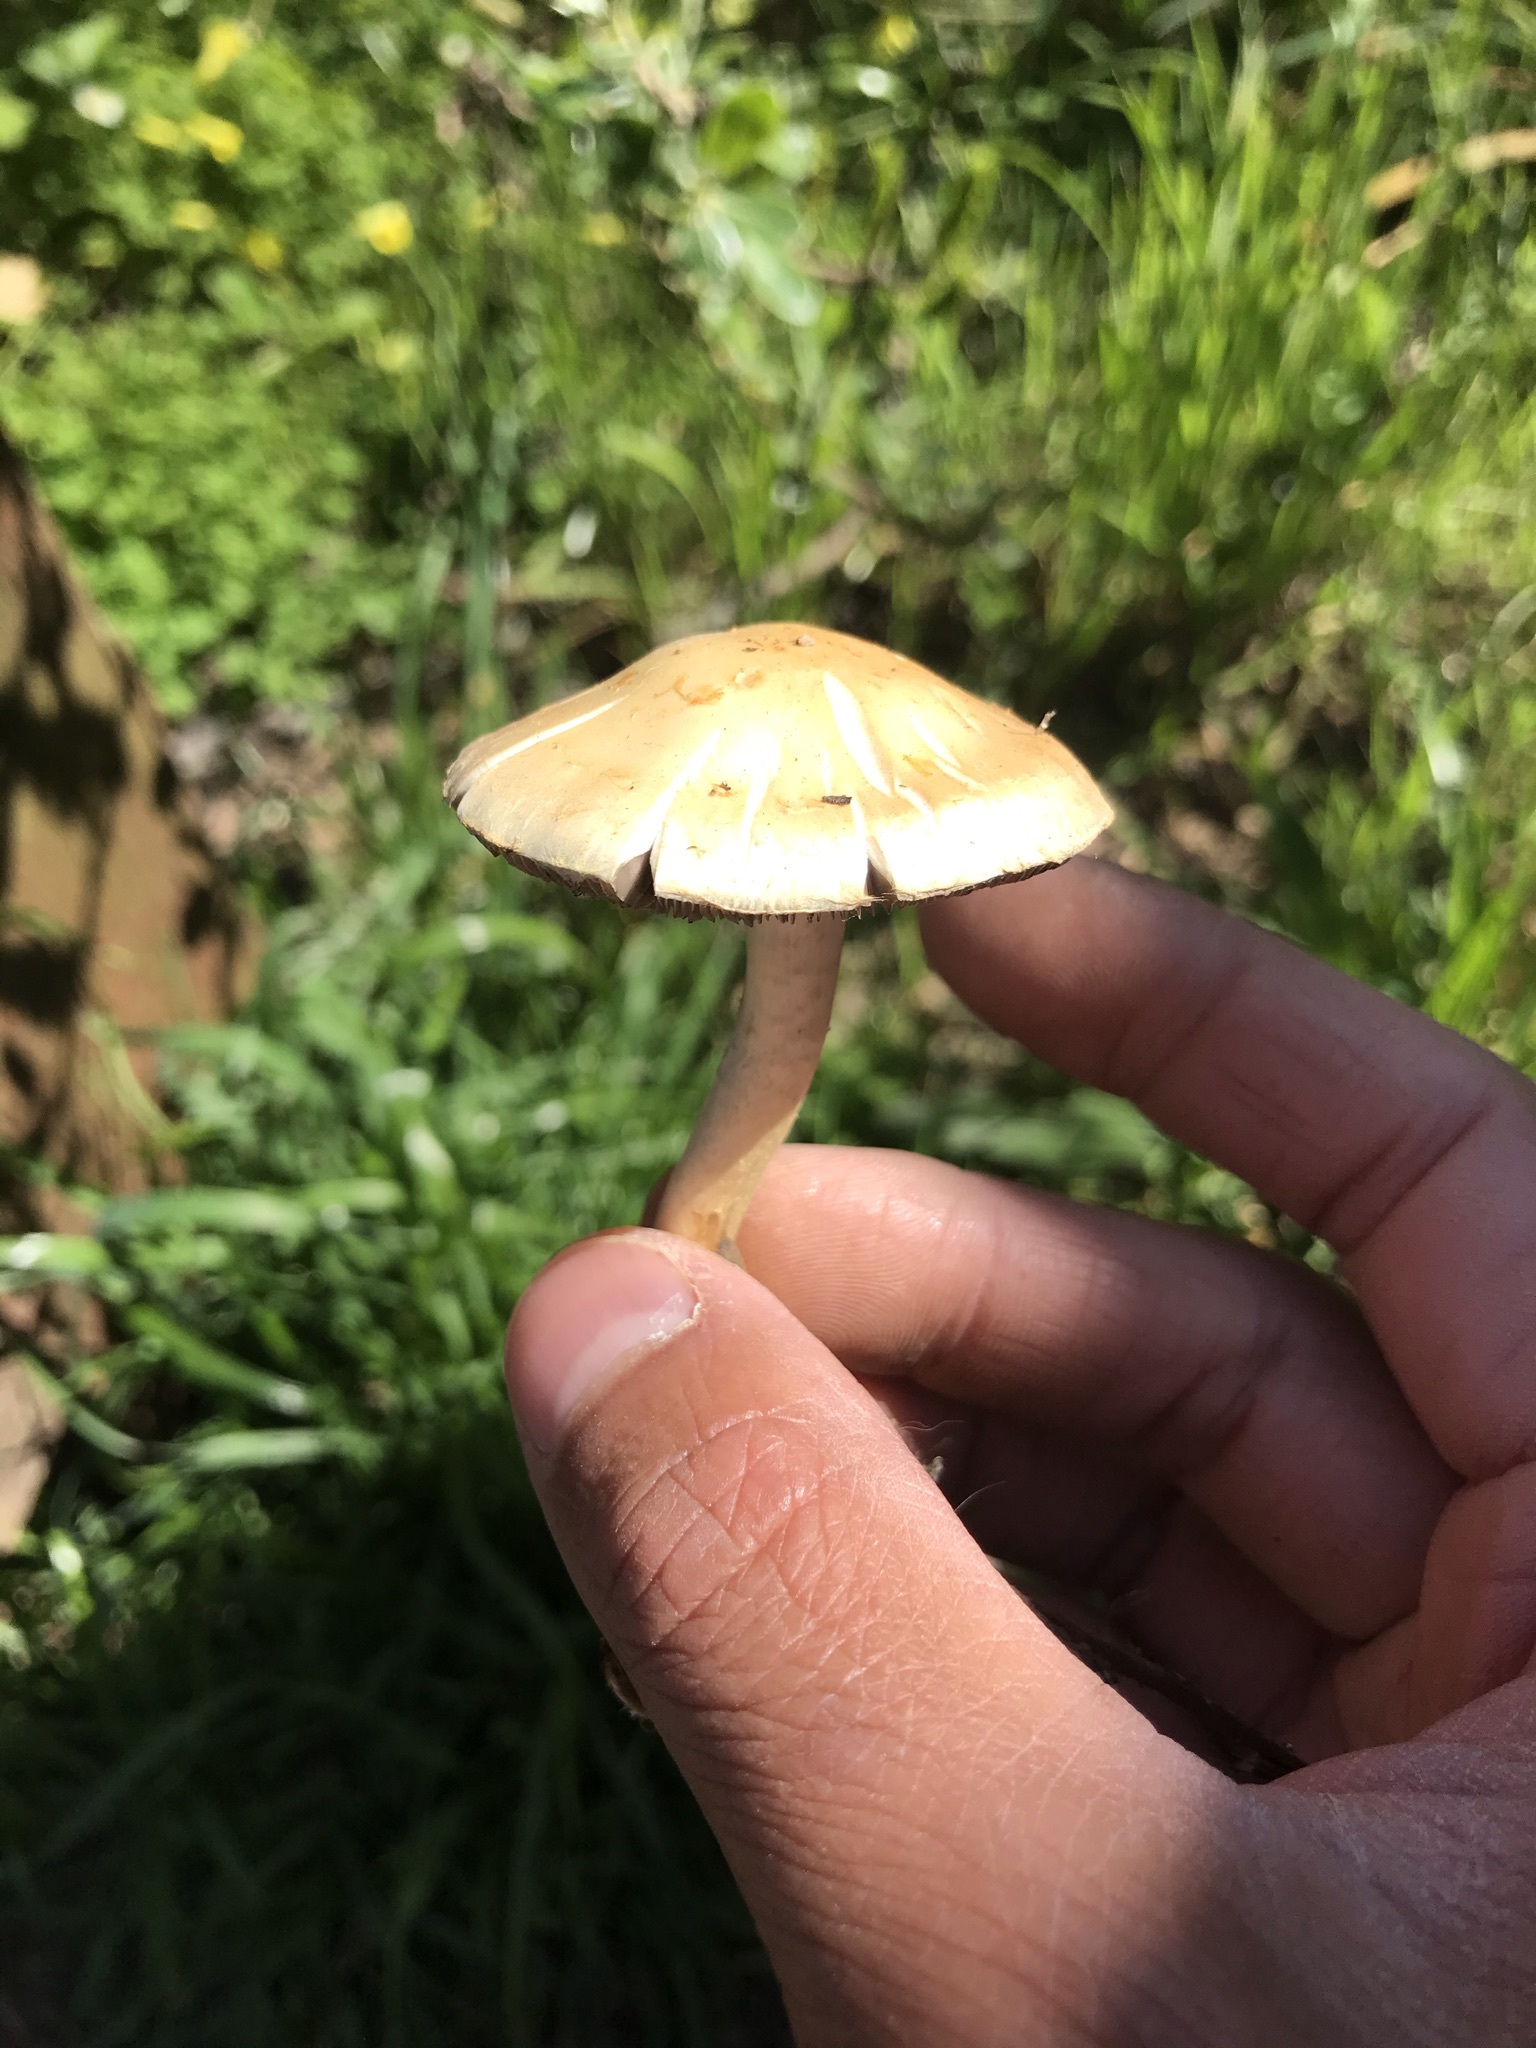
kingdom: Fungi
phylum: Basidiomycota
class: Agaricomycetes
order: Agaricales
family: Strophariaceae
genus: Leratiomyces
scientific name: Leratiomyces percevalii
